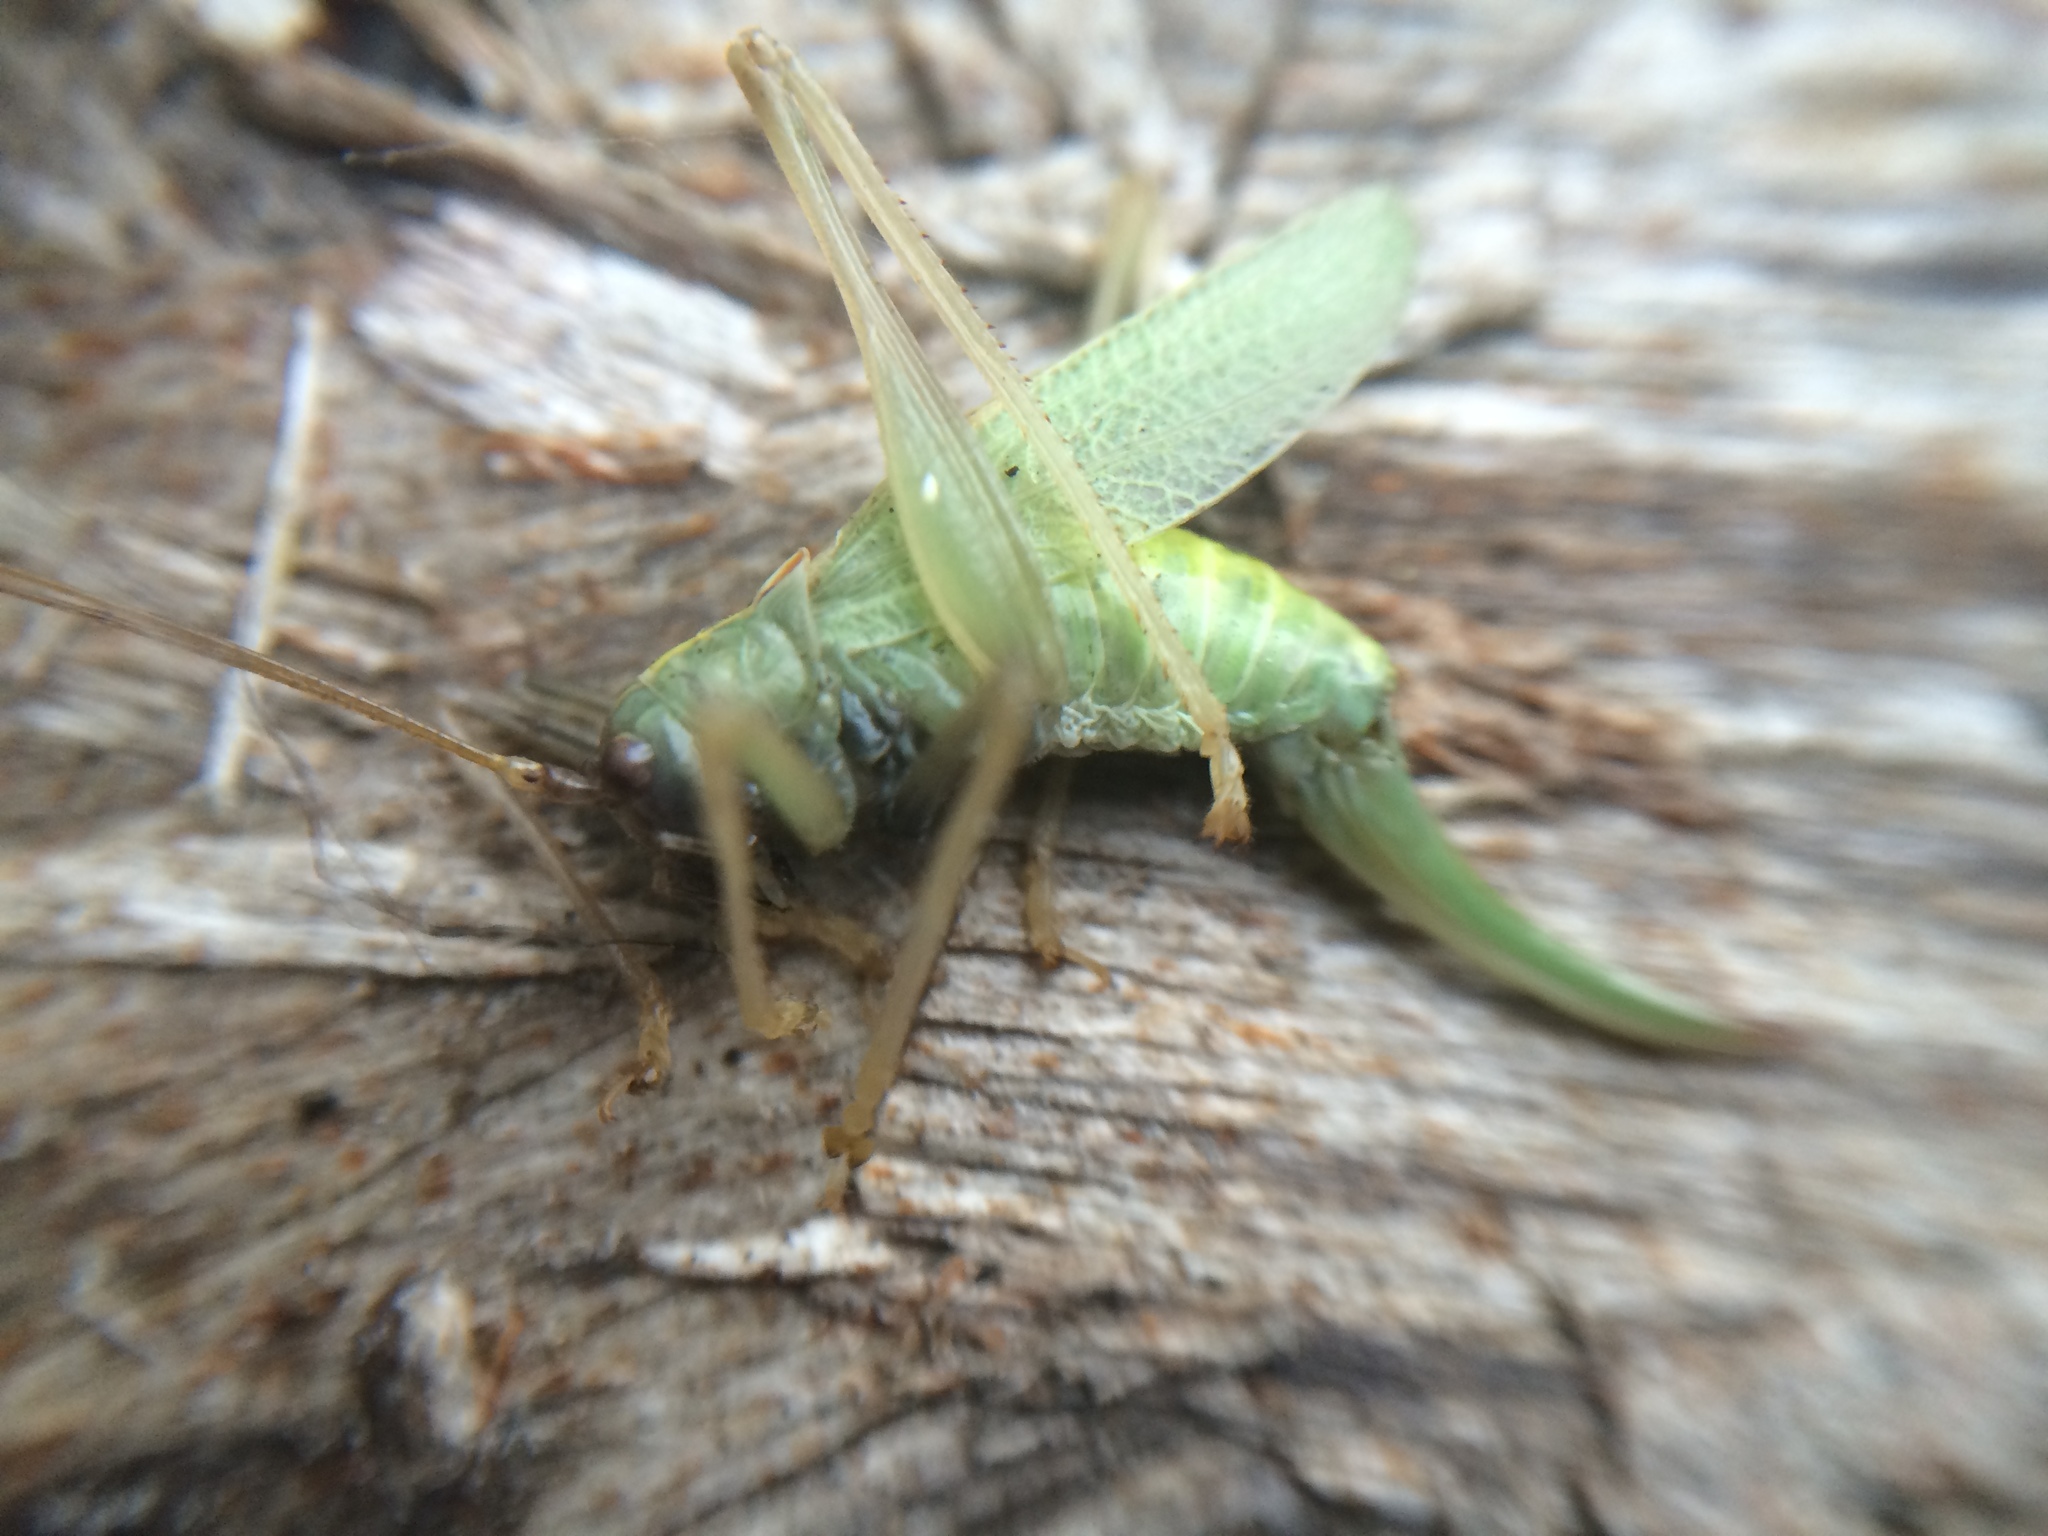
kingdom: Animalia
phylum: Arthropoda
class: Insecta
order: Orthoptera
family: Tettigoniidae
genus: Meconema
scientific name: Meconema thalassinum
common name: Oak bush-cricket
